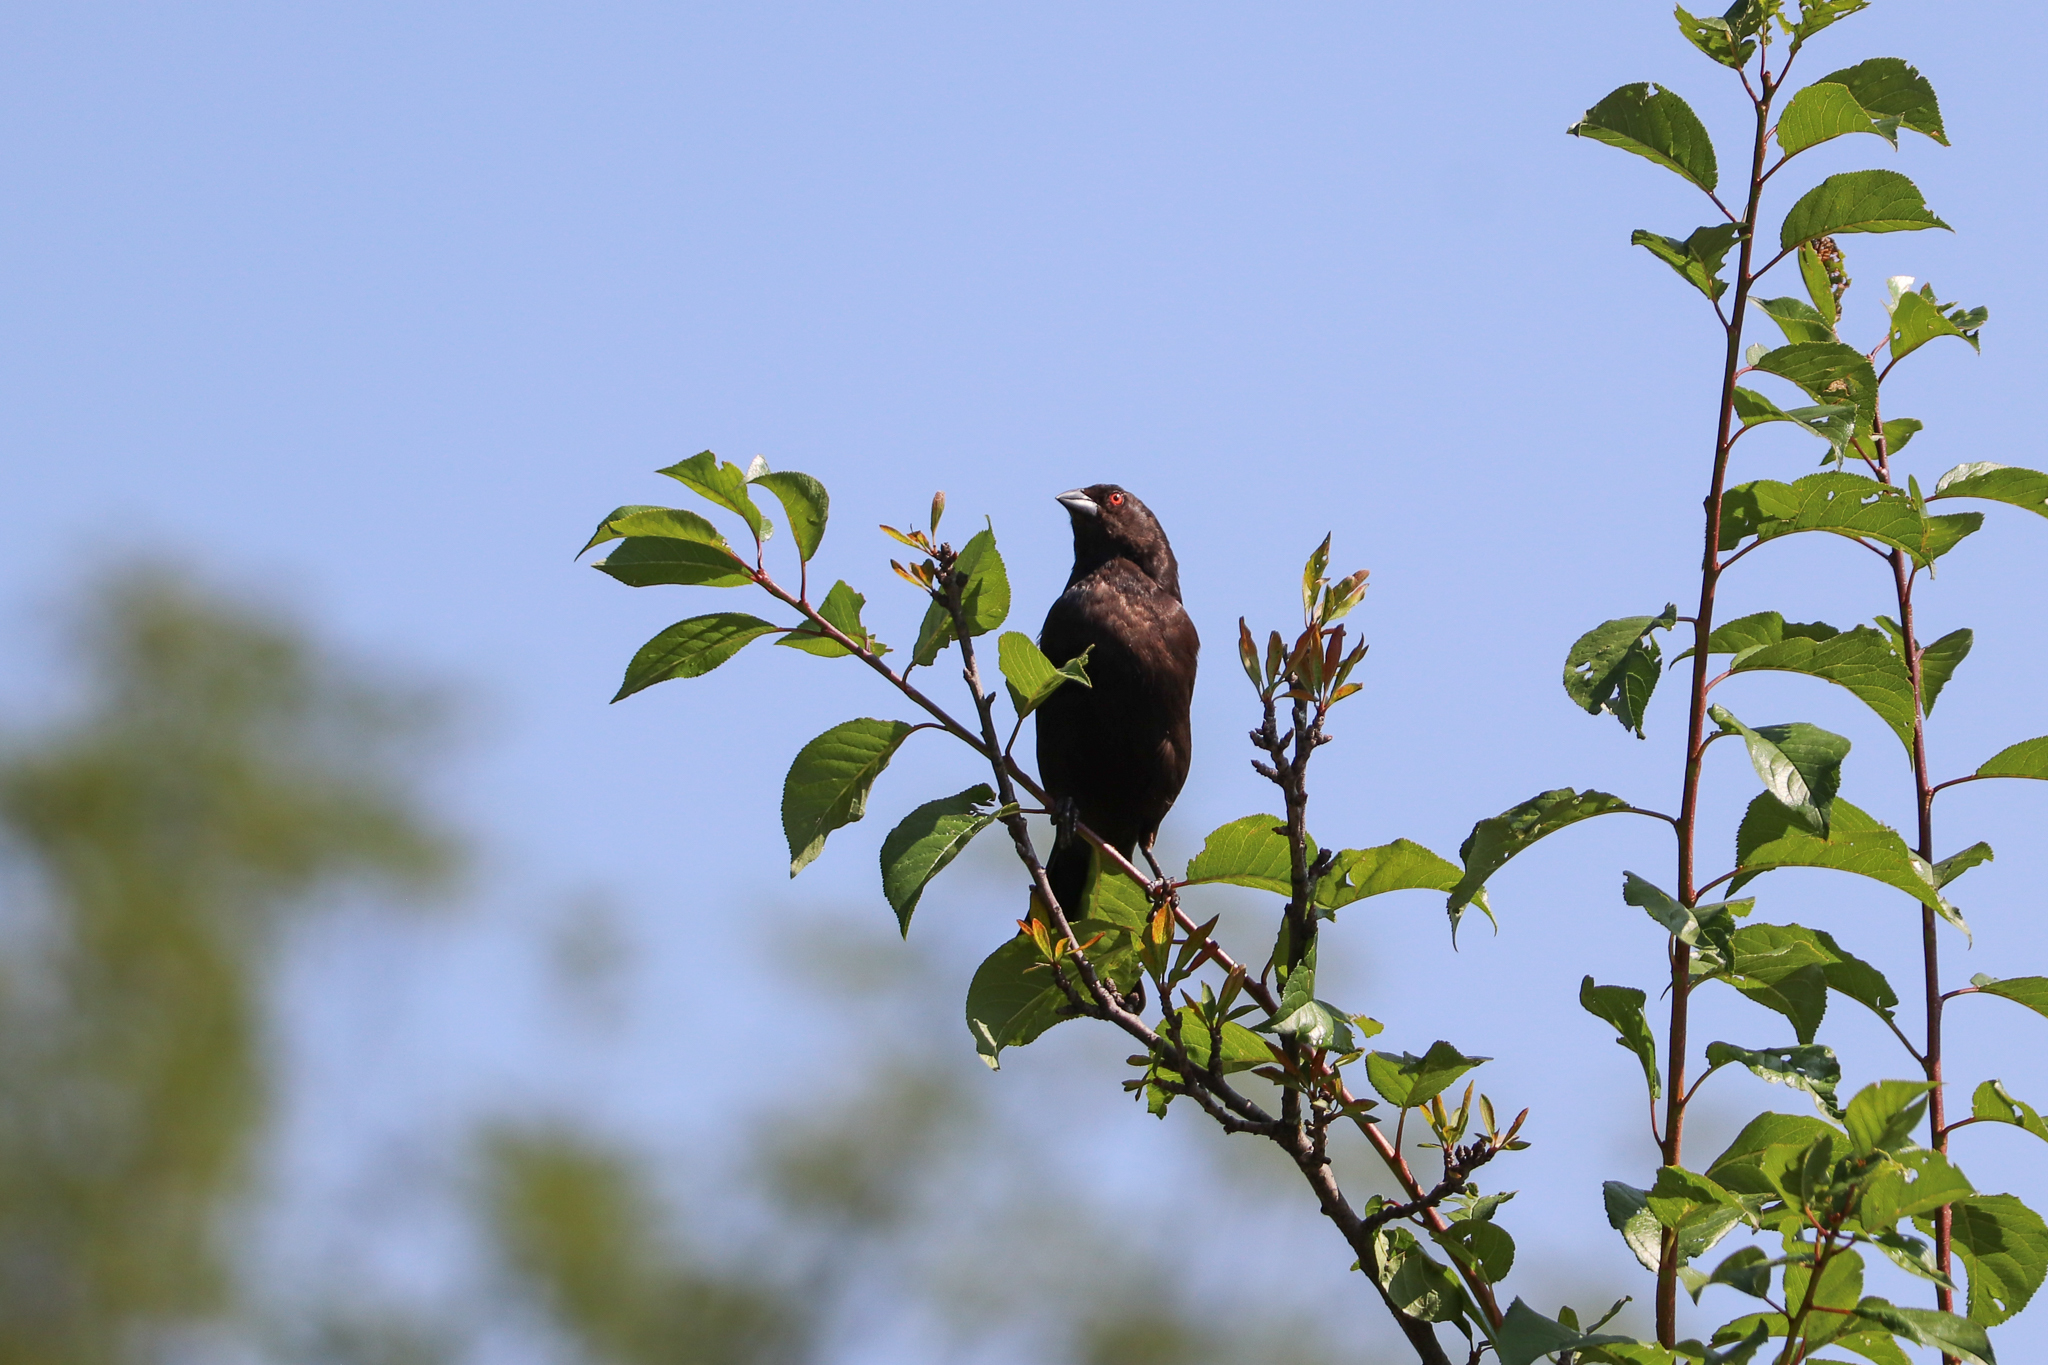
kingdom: Animalia
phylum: Chordata
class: Aves
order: Passeriformes
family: Icteridae
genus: Molothrus
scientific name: Molothrus aeneus
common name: Bronzed cowbird
